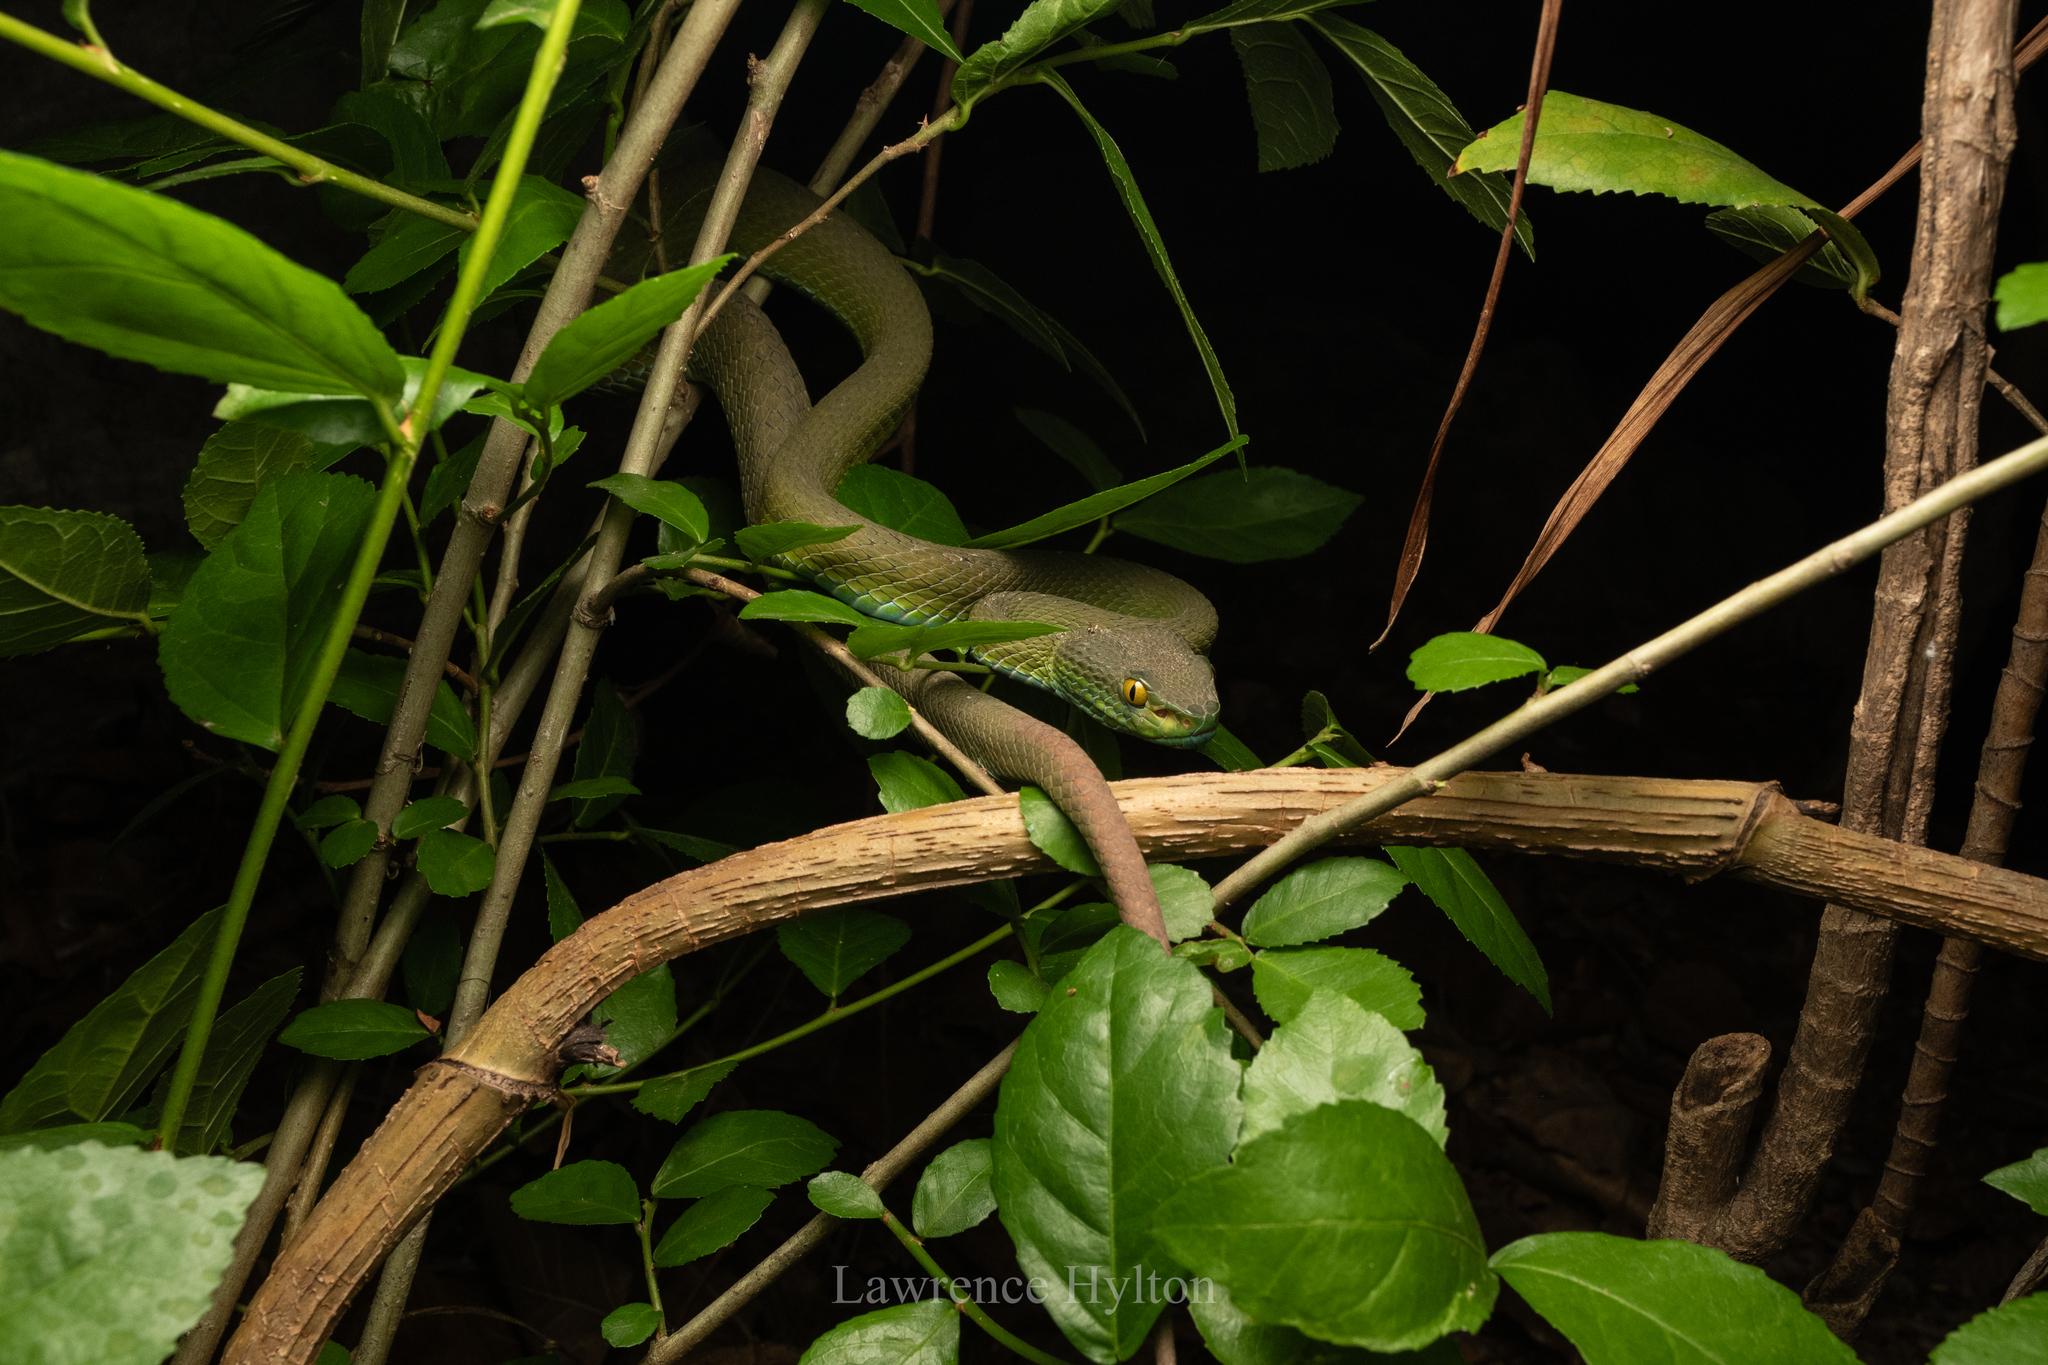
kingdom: Animalia
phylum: Chordata
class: Squamata
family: Viperidae
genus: Trimeresurus
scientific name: Trimeresurus macrops
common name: Kramer's pit viper
